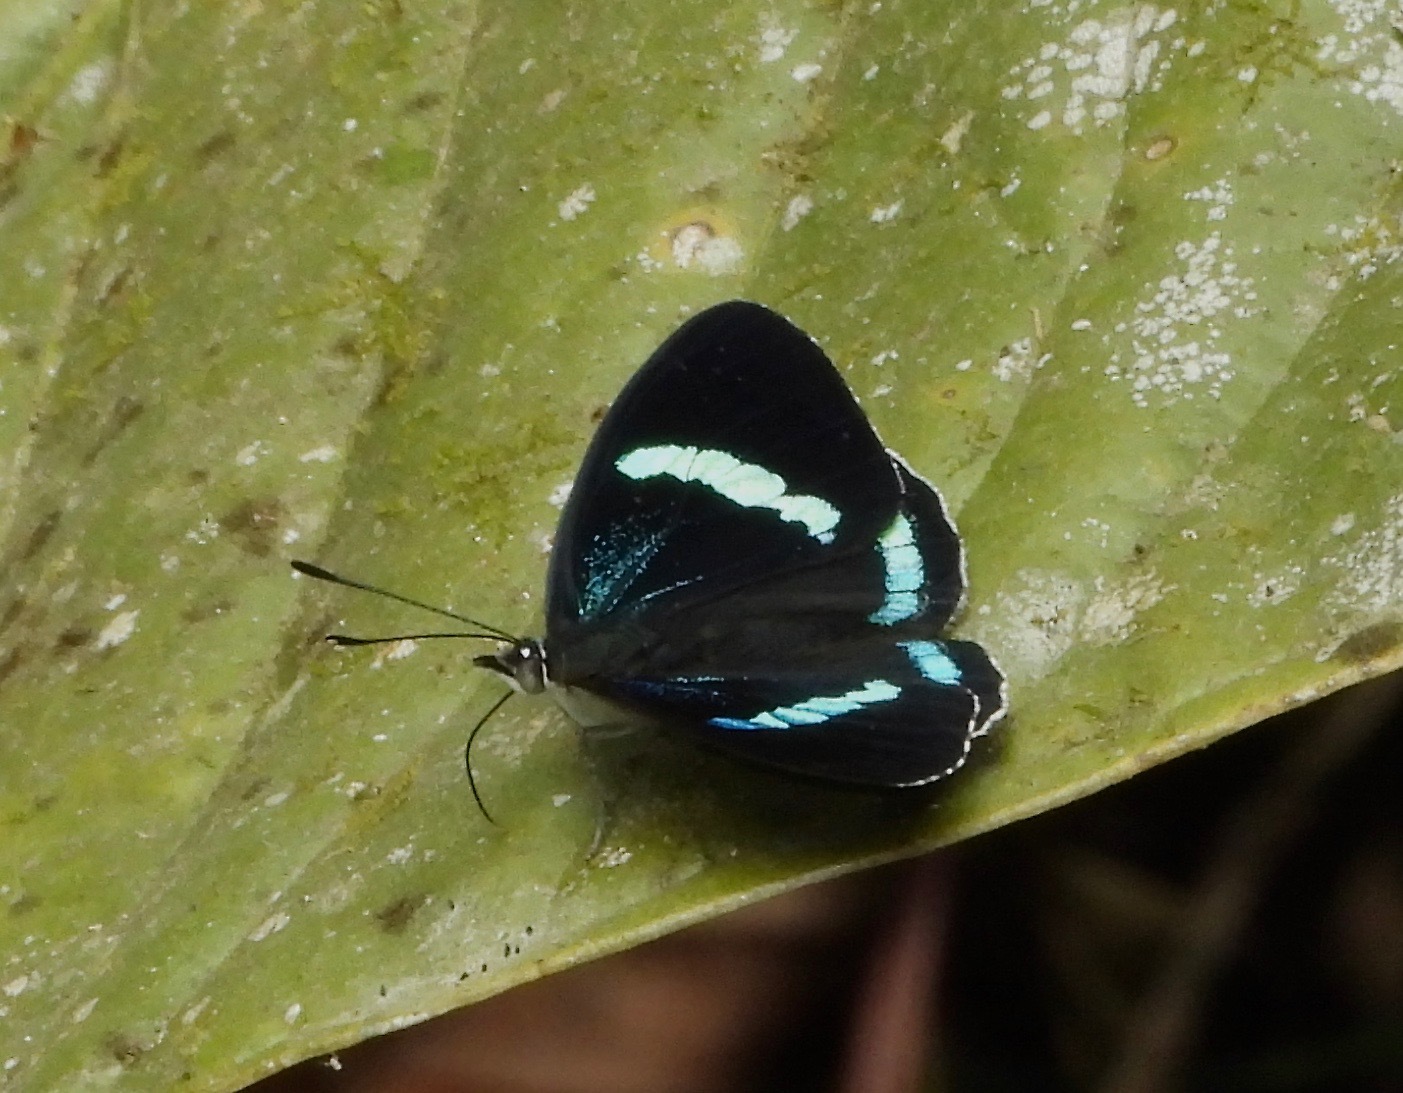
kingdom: Animalia
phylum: Arthropoda
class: Insecta
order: Lepidoptera
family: Nymphalidae
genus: Diaethria
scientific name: Diaethria neglecta
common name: Neglected eighty-eight
